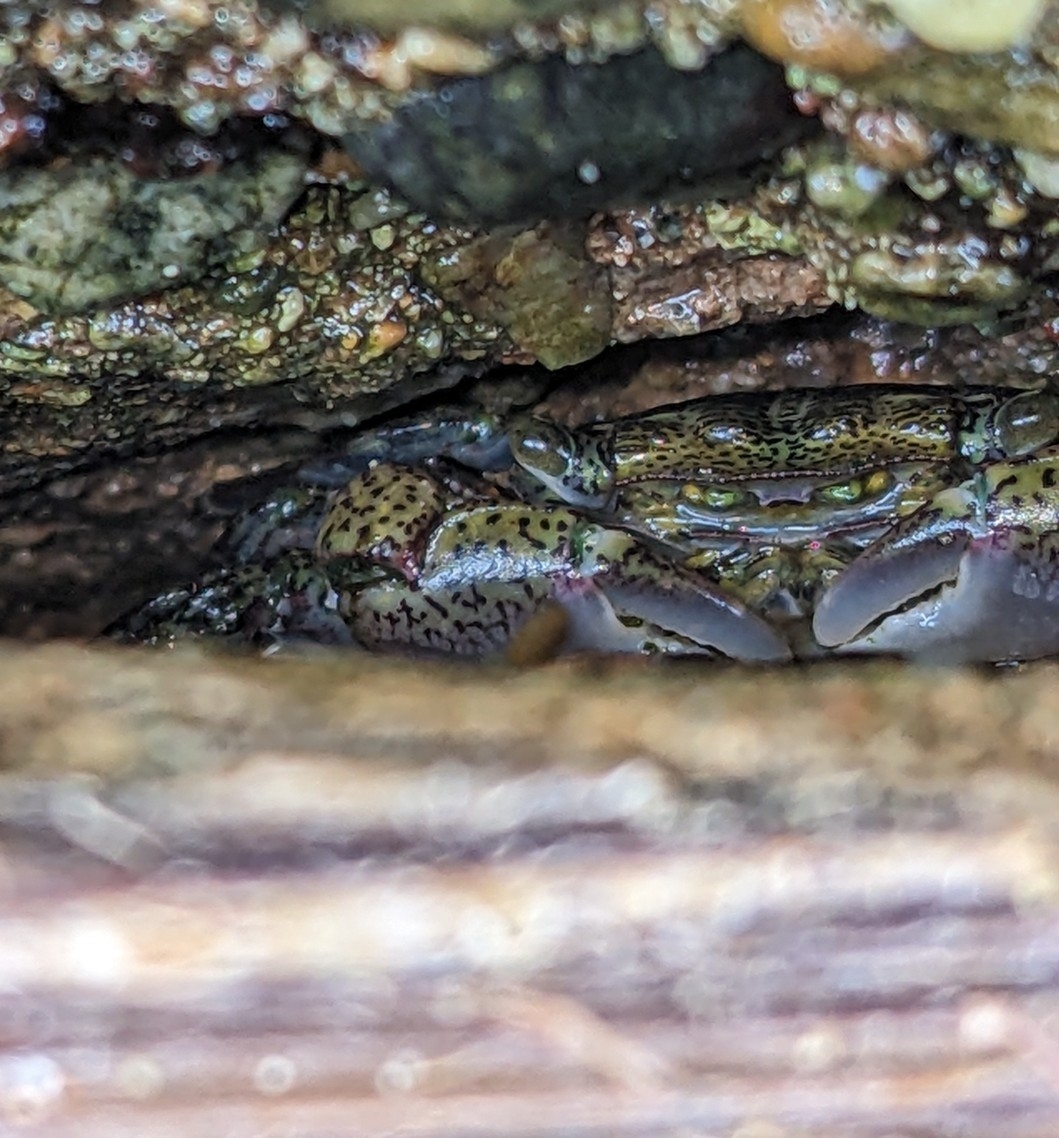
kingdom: Animalia
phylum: Arthropoda
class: Malacostraca
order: Decapoda
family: Grapsidae
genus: Pachygrapsus
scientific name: Pachygrapsus crassipes
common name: Striped shore crab
